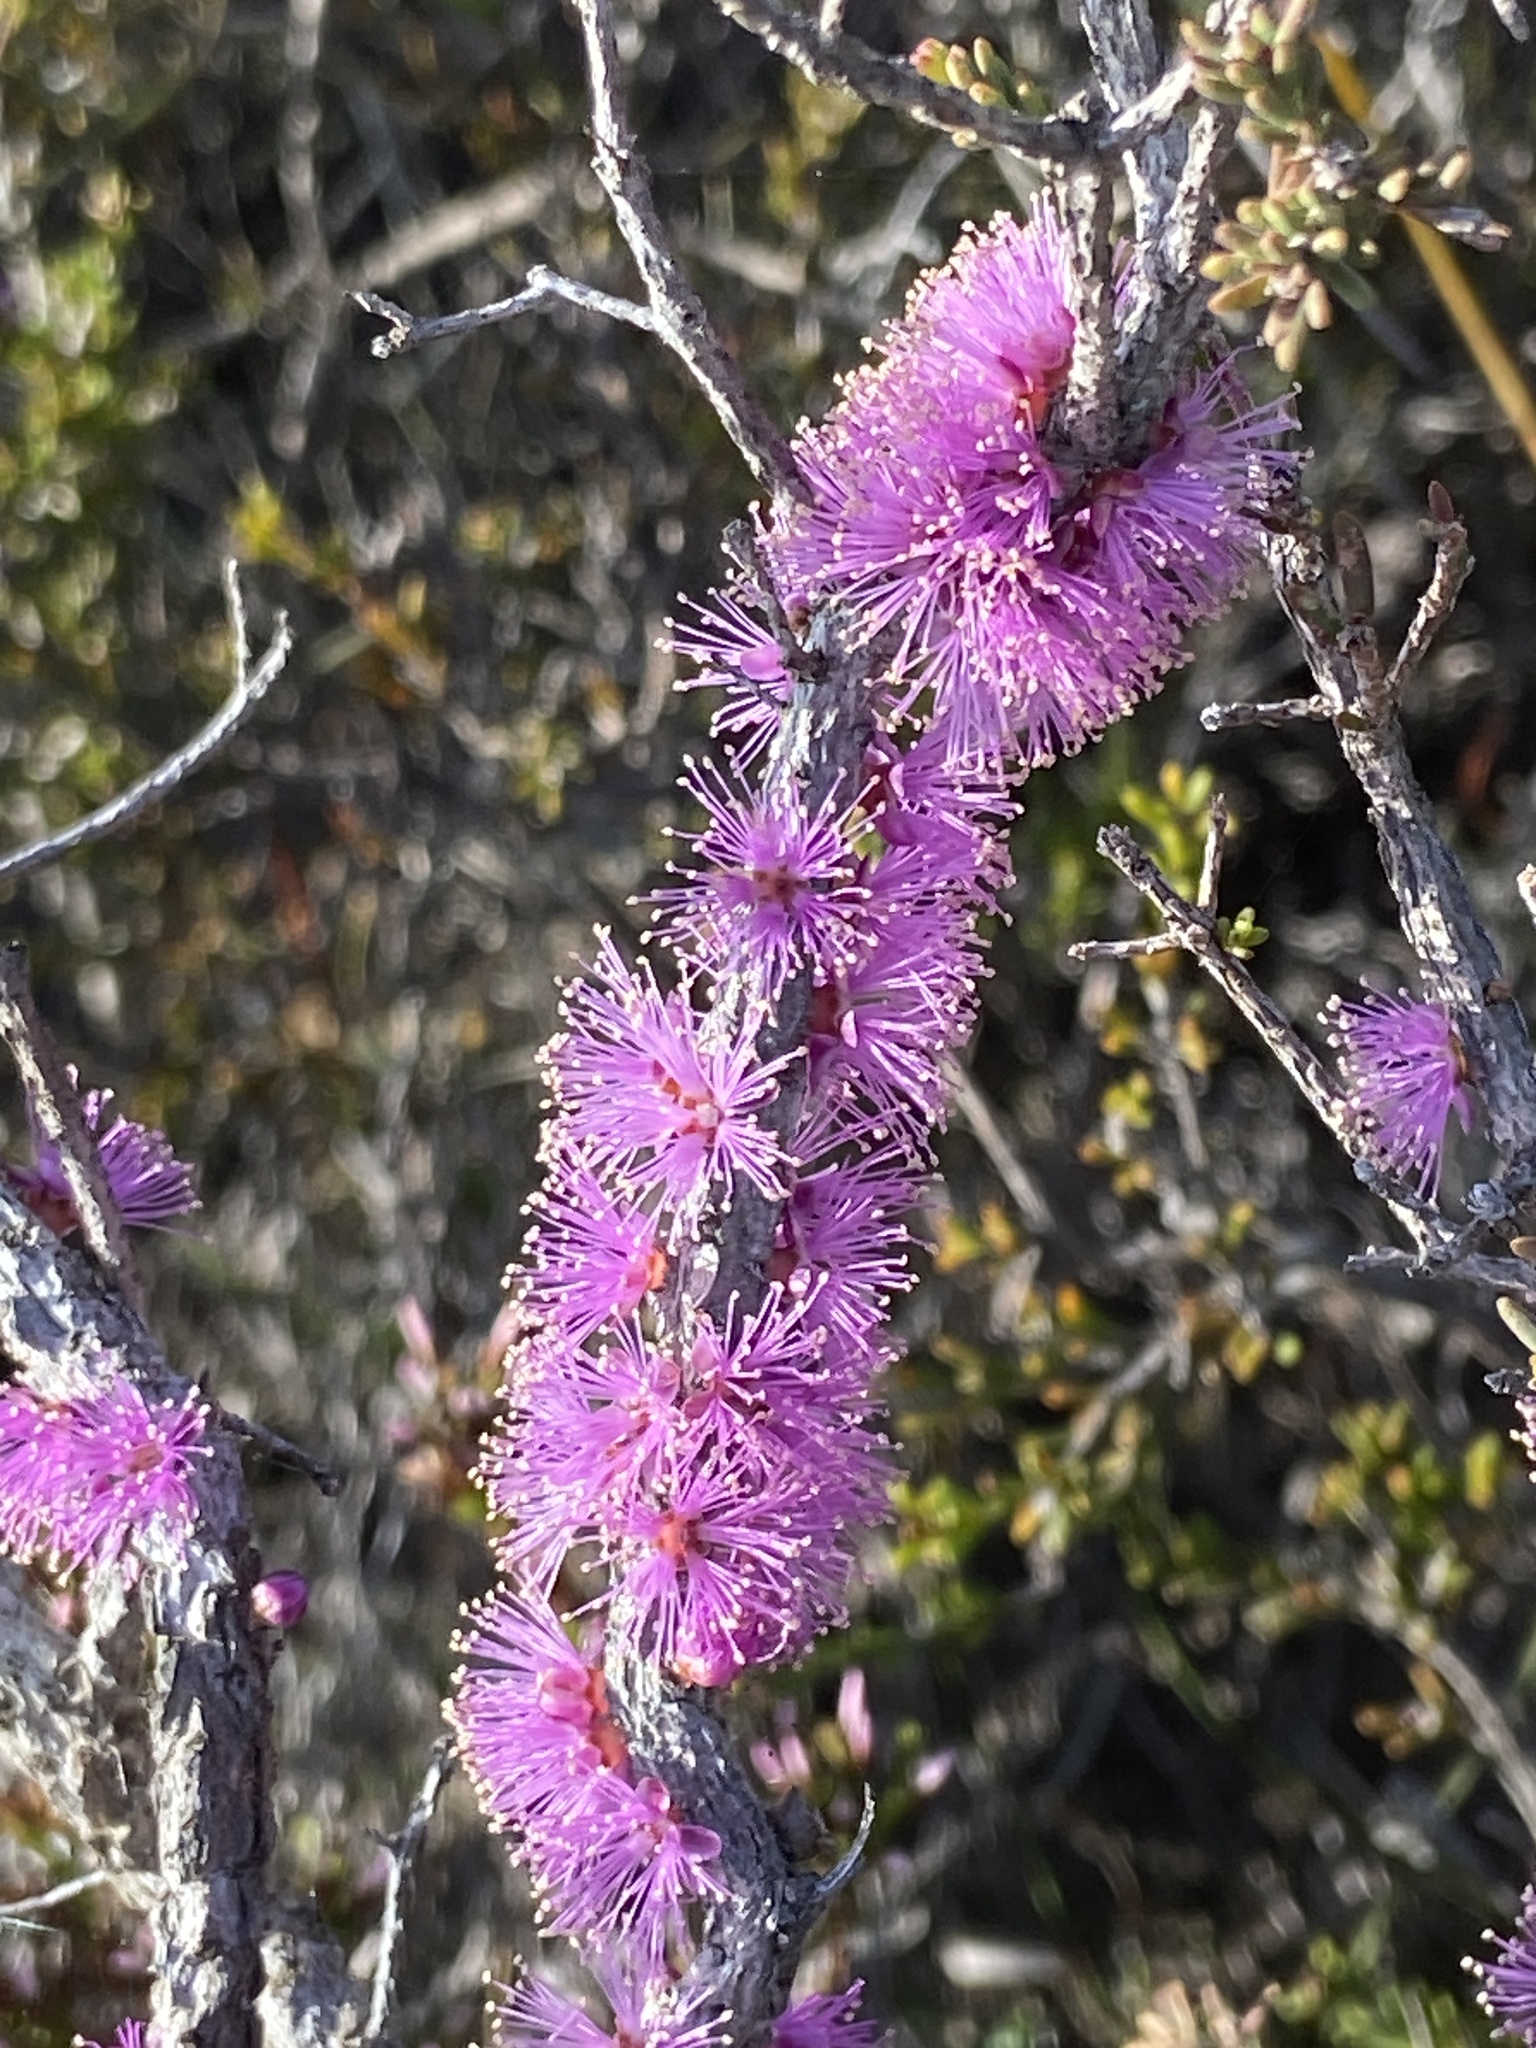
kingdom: Plantae
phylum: Tracheophyta
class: Magnoliopsida
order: Myrtales
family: Myrtaceae
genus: Melaleuca
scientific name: Melaleuca suberosa
